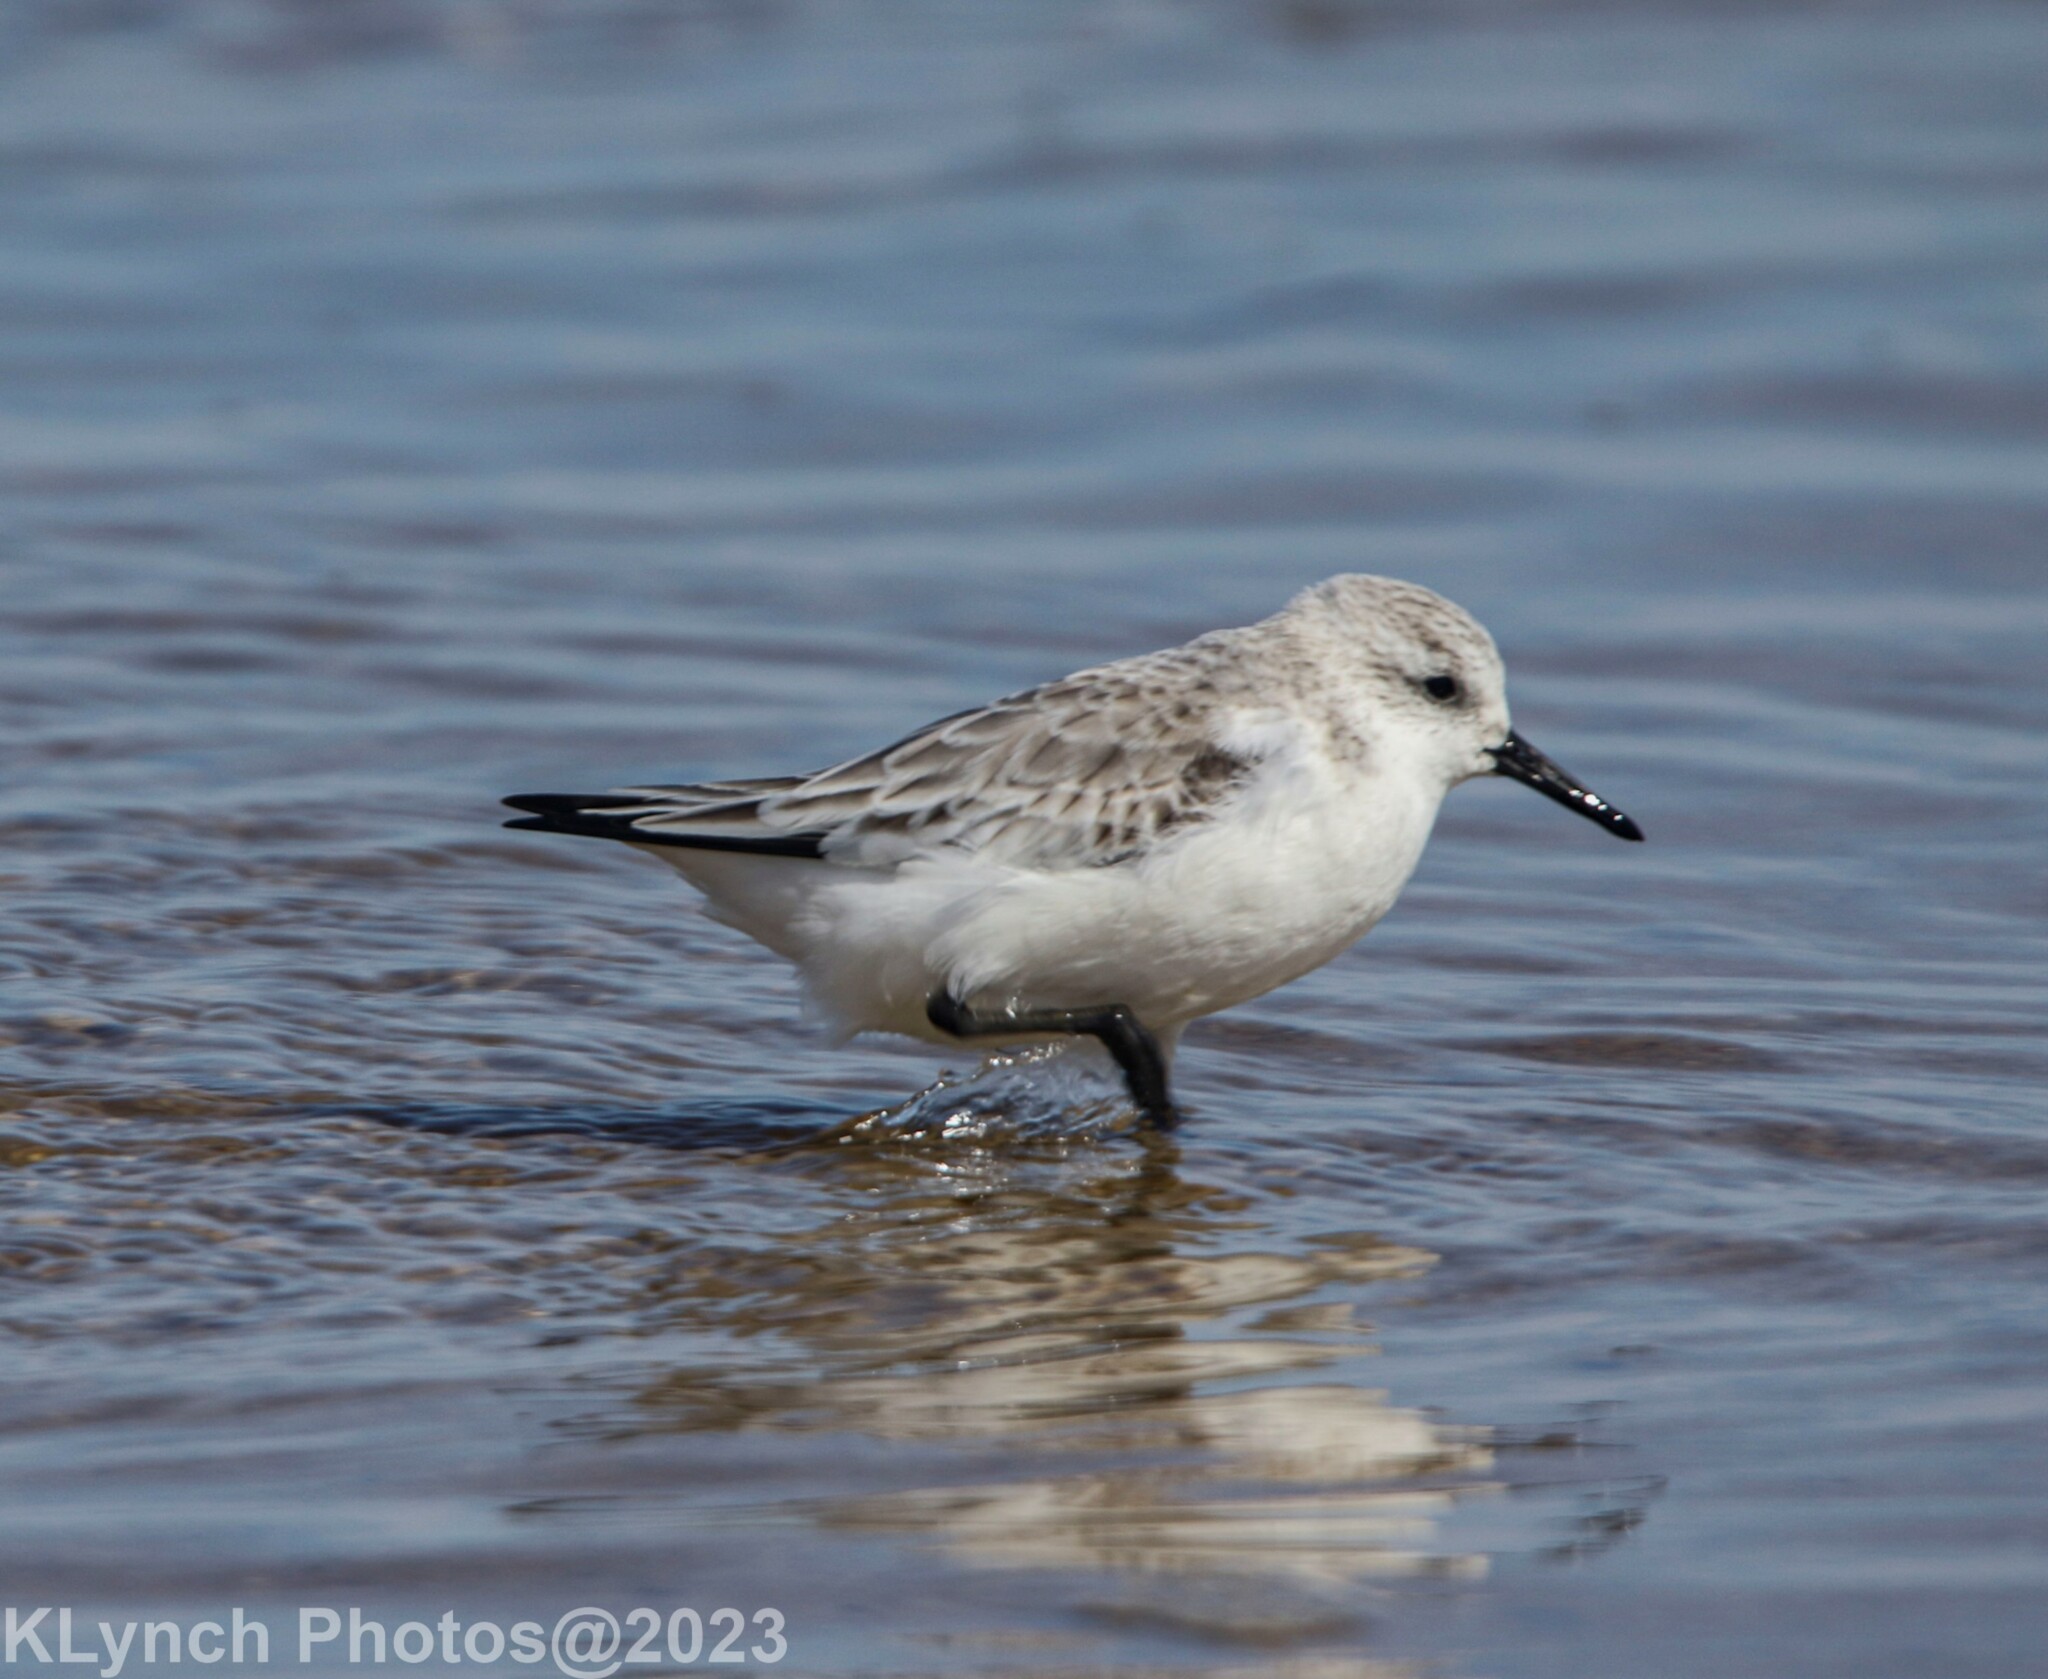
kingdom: Animalia
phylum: Chordata
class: Aves
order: Charadriiformes
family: Scolopacidae
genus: Calidris
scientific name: Calidris alba
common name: Sanderling
